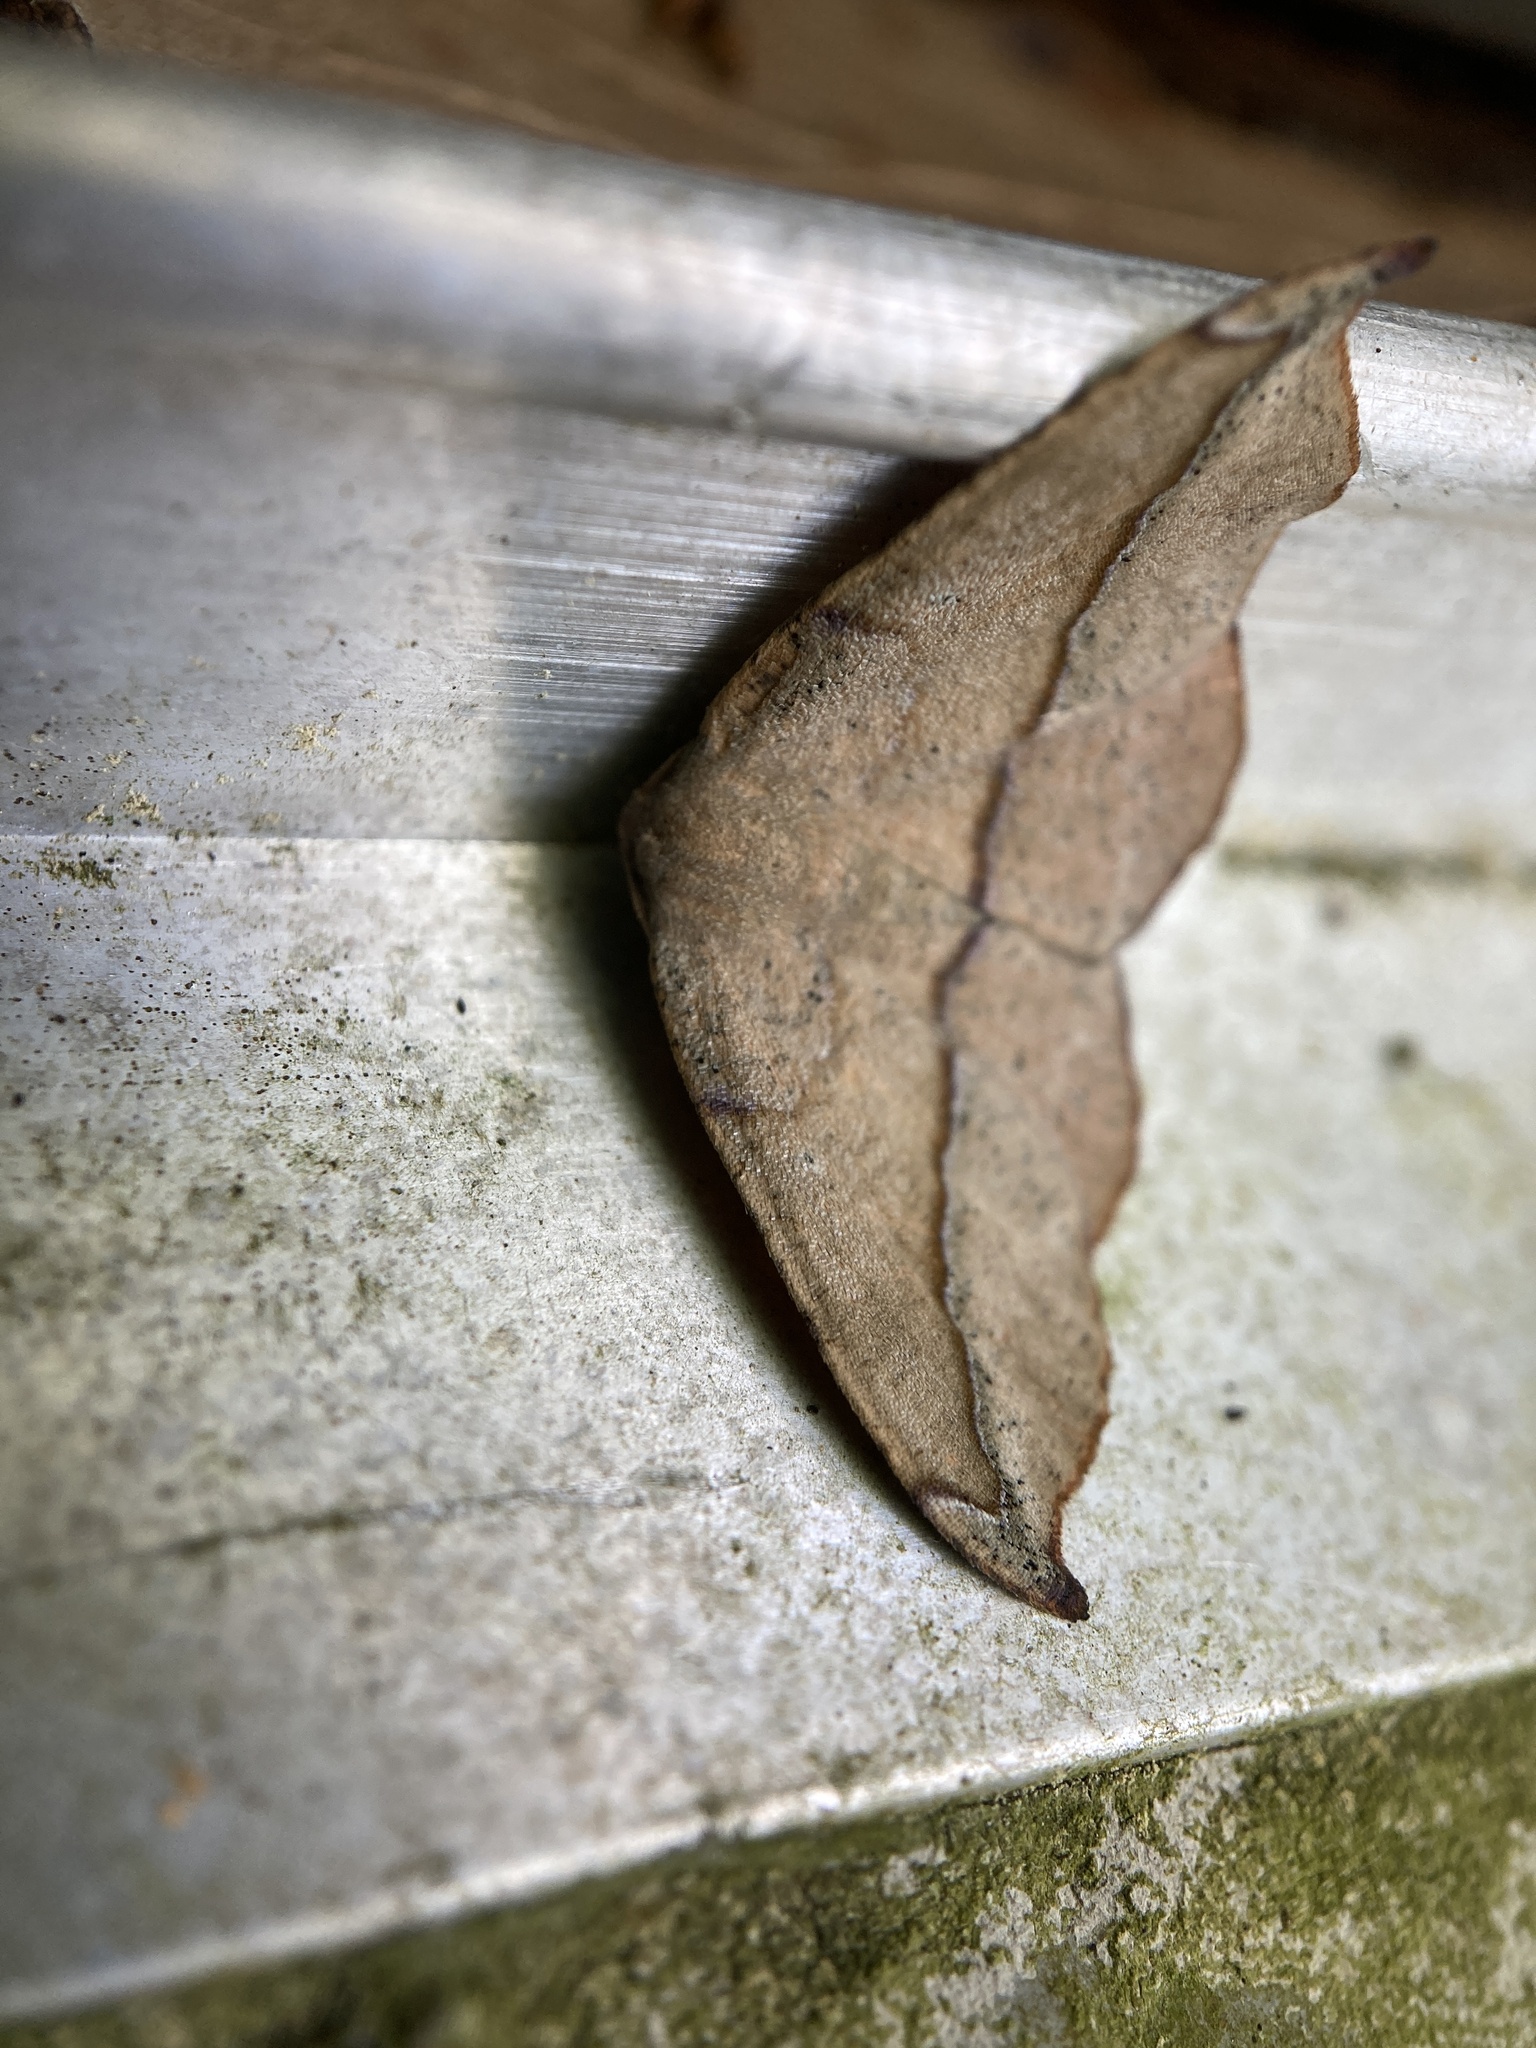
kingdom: Animalia
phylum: Arthropoda
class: Insecta
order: Lepidoptera
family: Geometridae
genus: Patalene
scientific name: Patalene olyzonaria
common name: Juniper geometer moth
